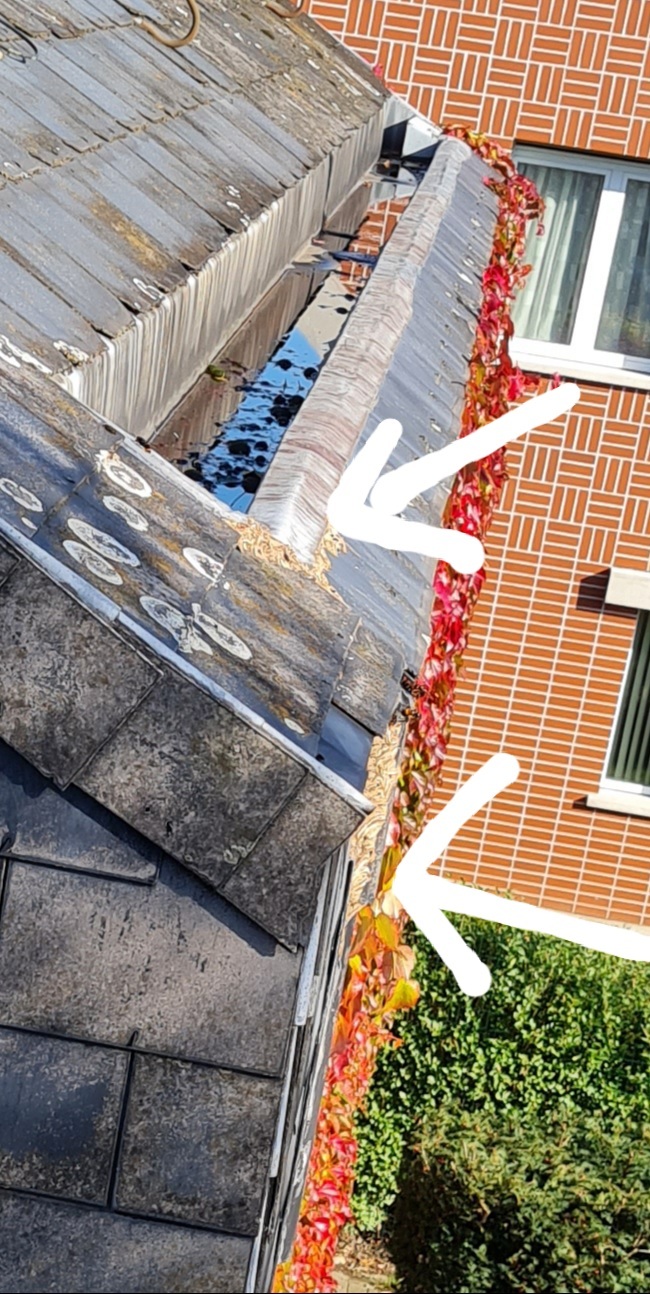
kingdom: Animalia
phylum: Arthropoda
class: Insecta
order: Hymenoptera
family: Vespidae
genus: Vespa
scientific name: Vespa velutina
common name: Asian hornet
